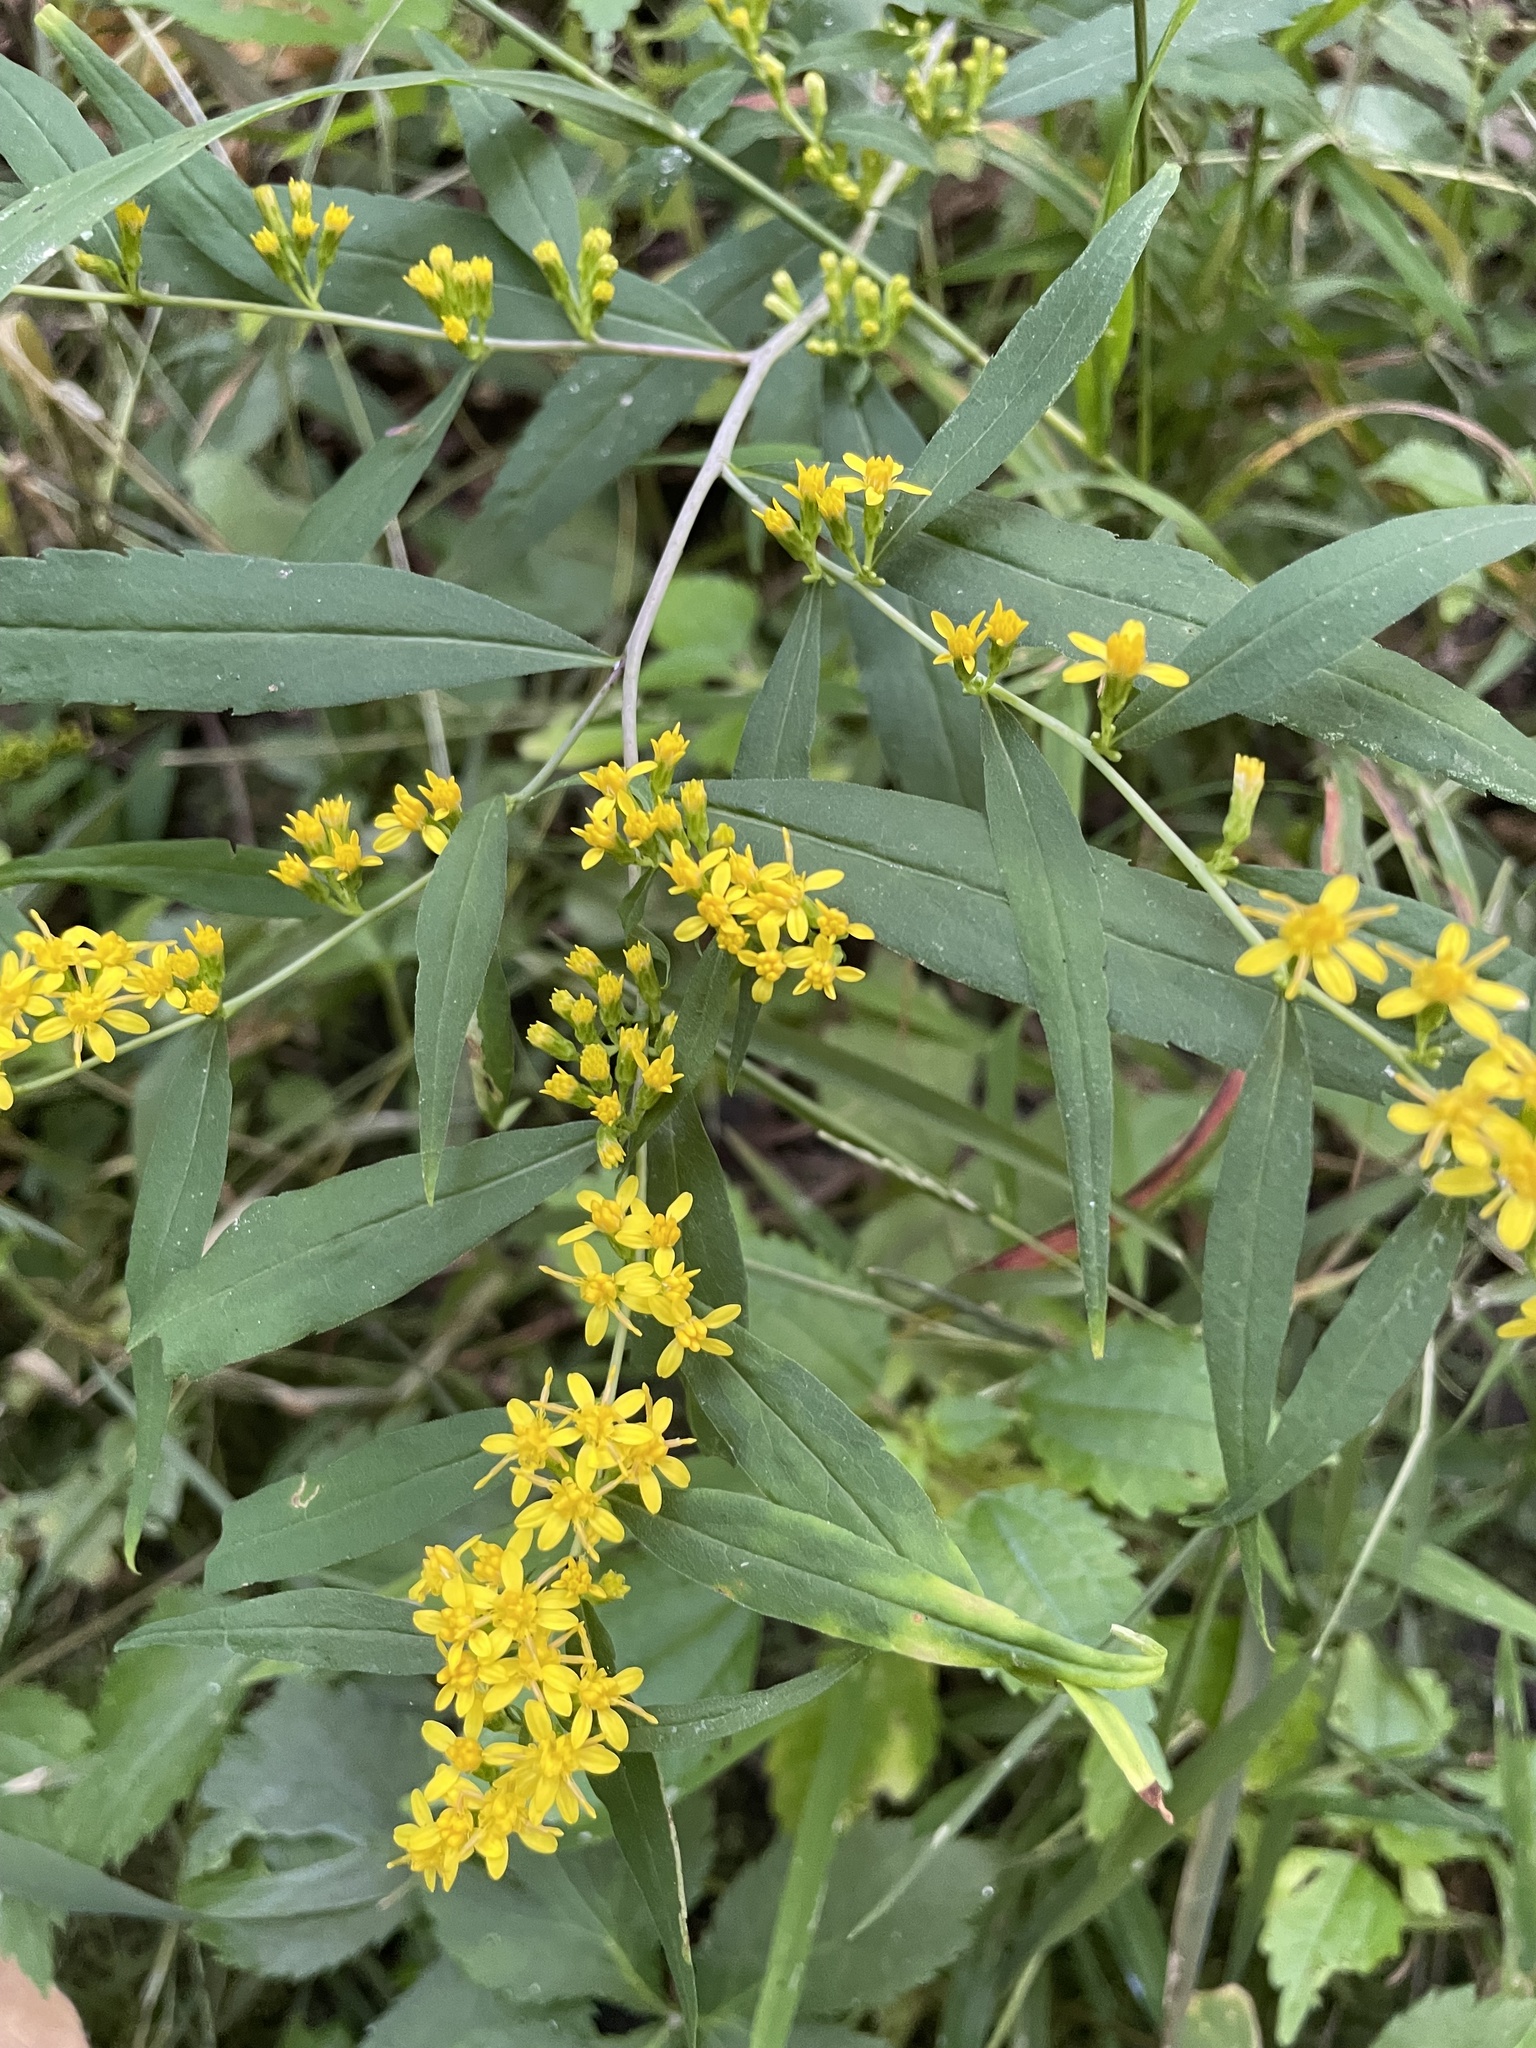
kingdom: Plantae
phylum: Tracheophyta
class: Magnoliopsida
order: Asterales
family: Asteraceae
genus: Solidago
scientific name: Solidago caesia
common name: Woodland goldenrod
